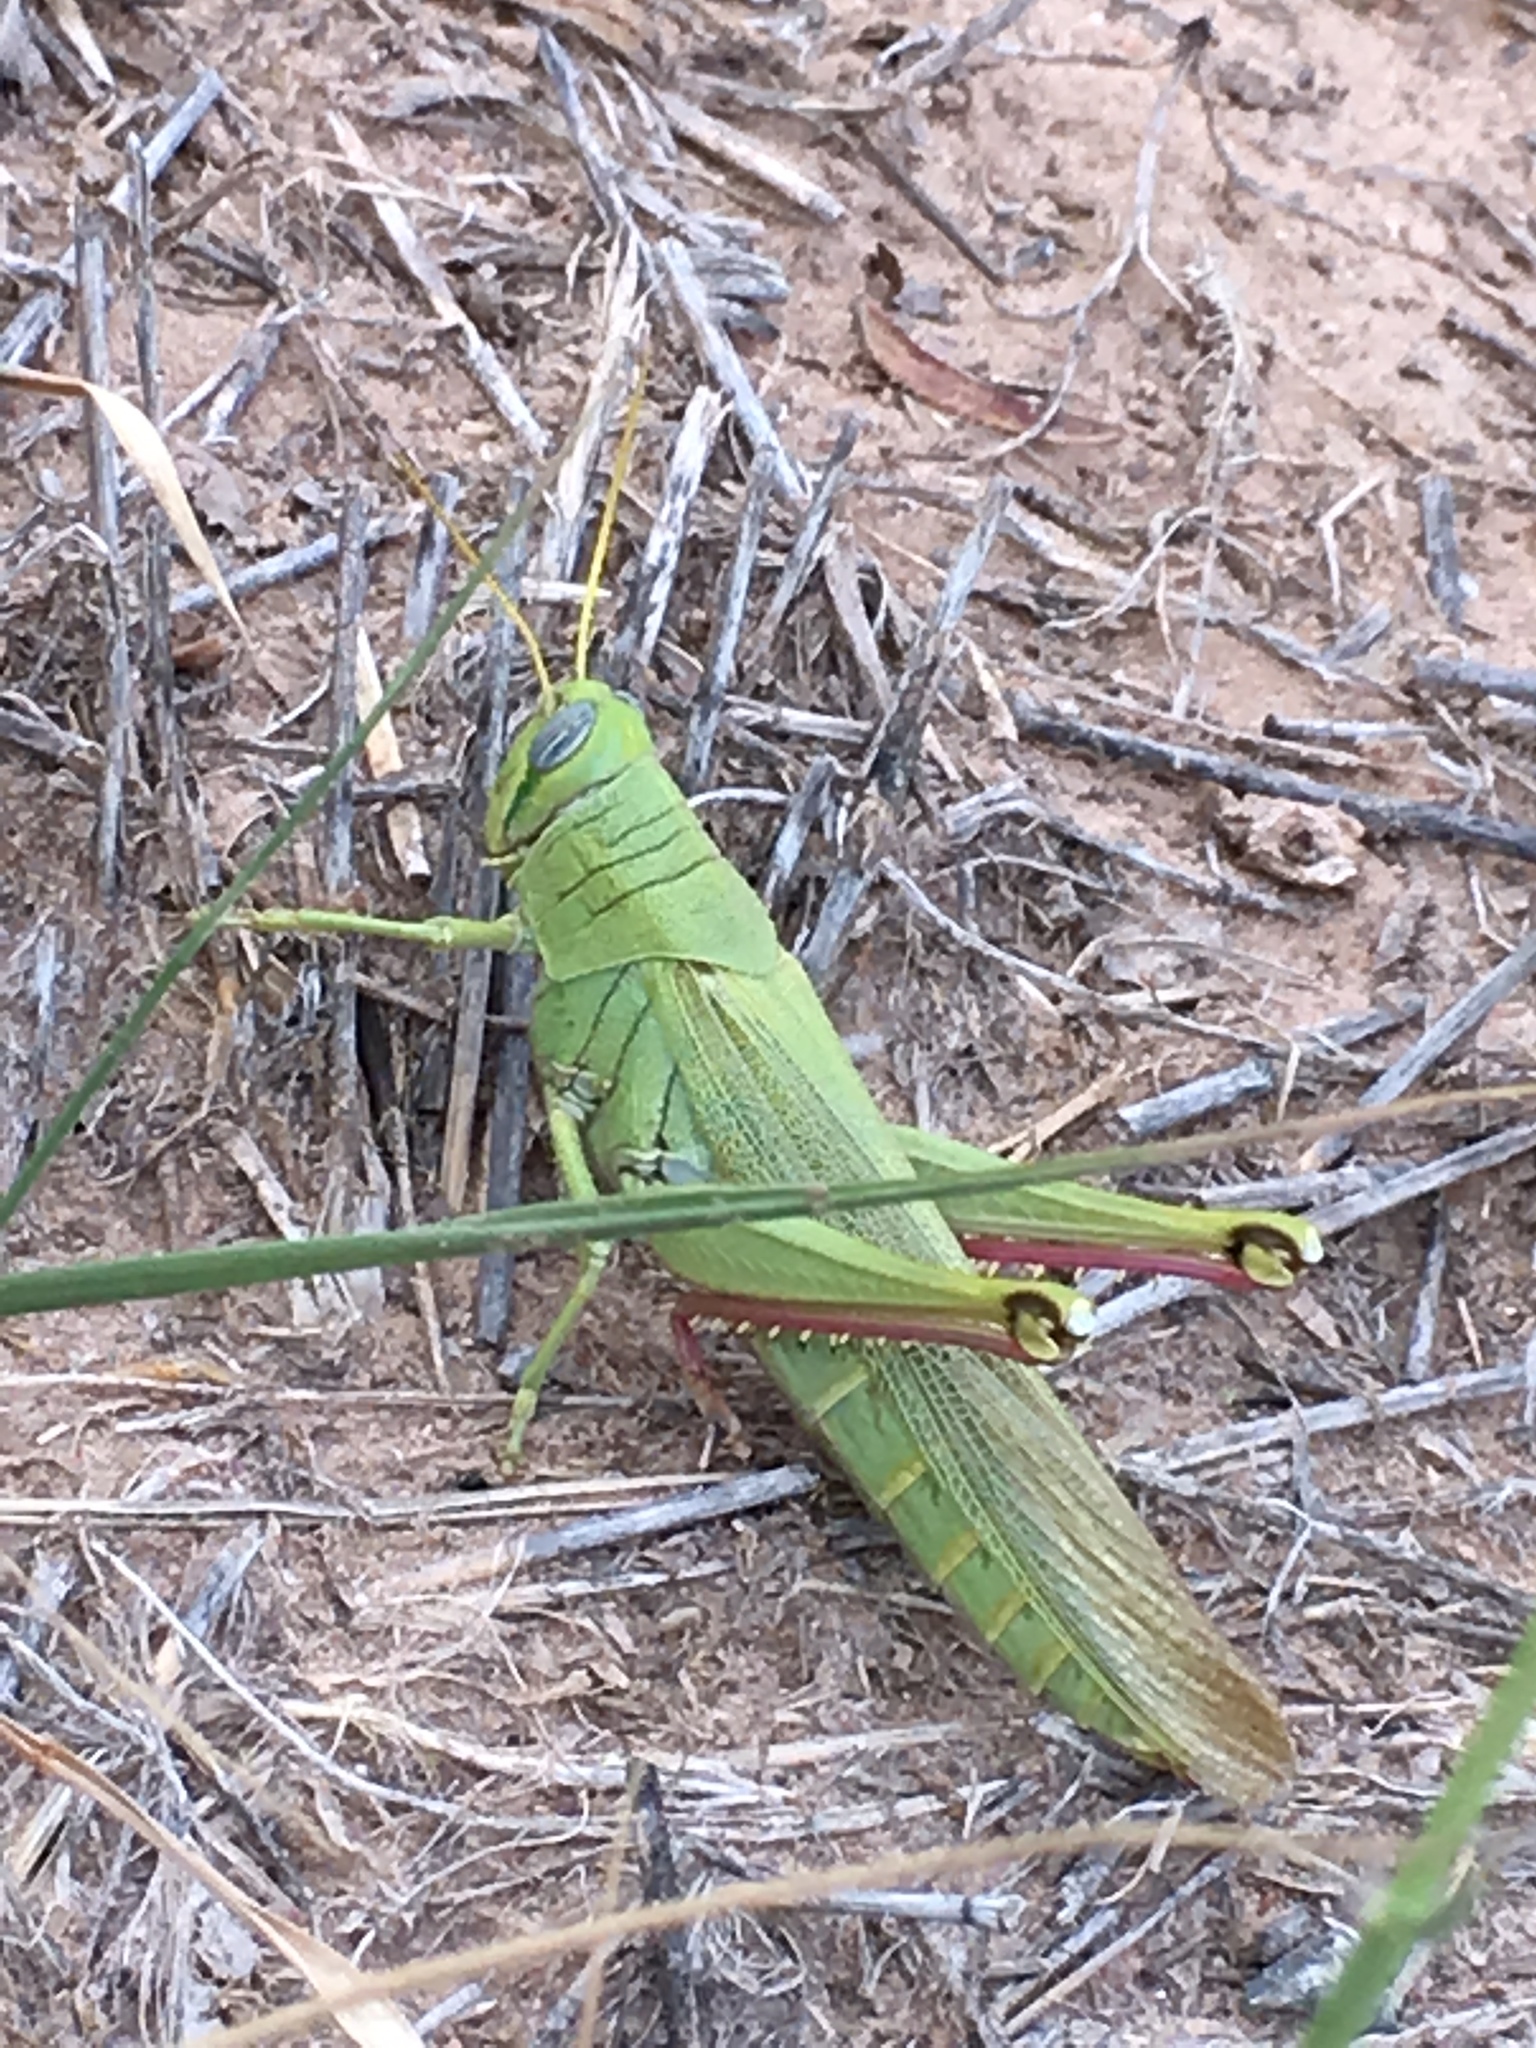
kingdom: Animalia
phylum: Arthropoda
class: Insecta
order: Orthoptera
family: Acrididae
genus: Schistocerca
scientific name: Schistocerca shoshone
